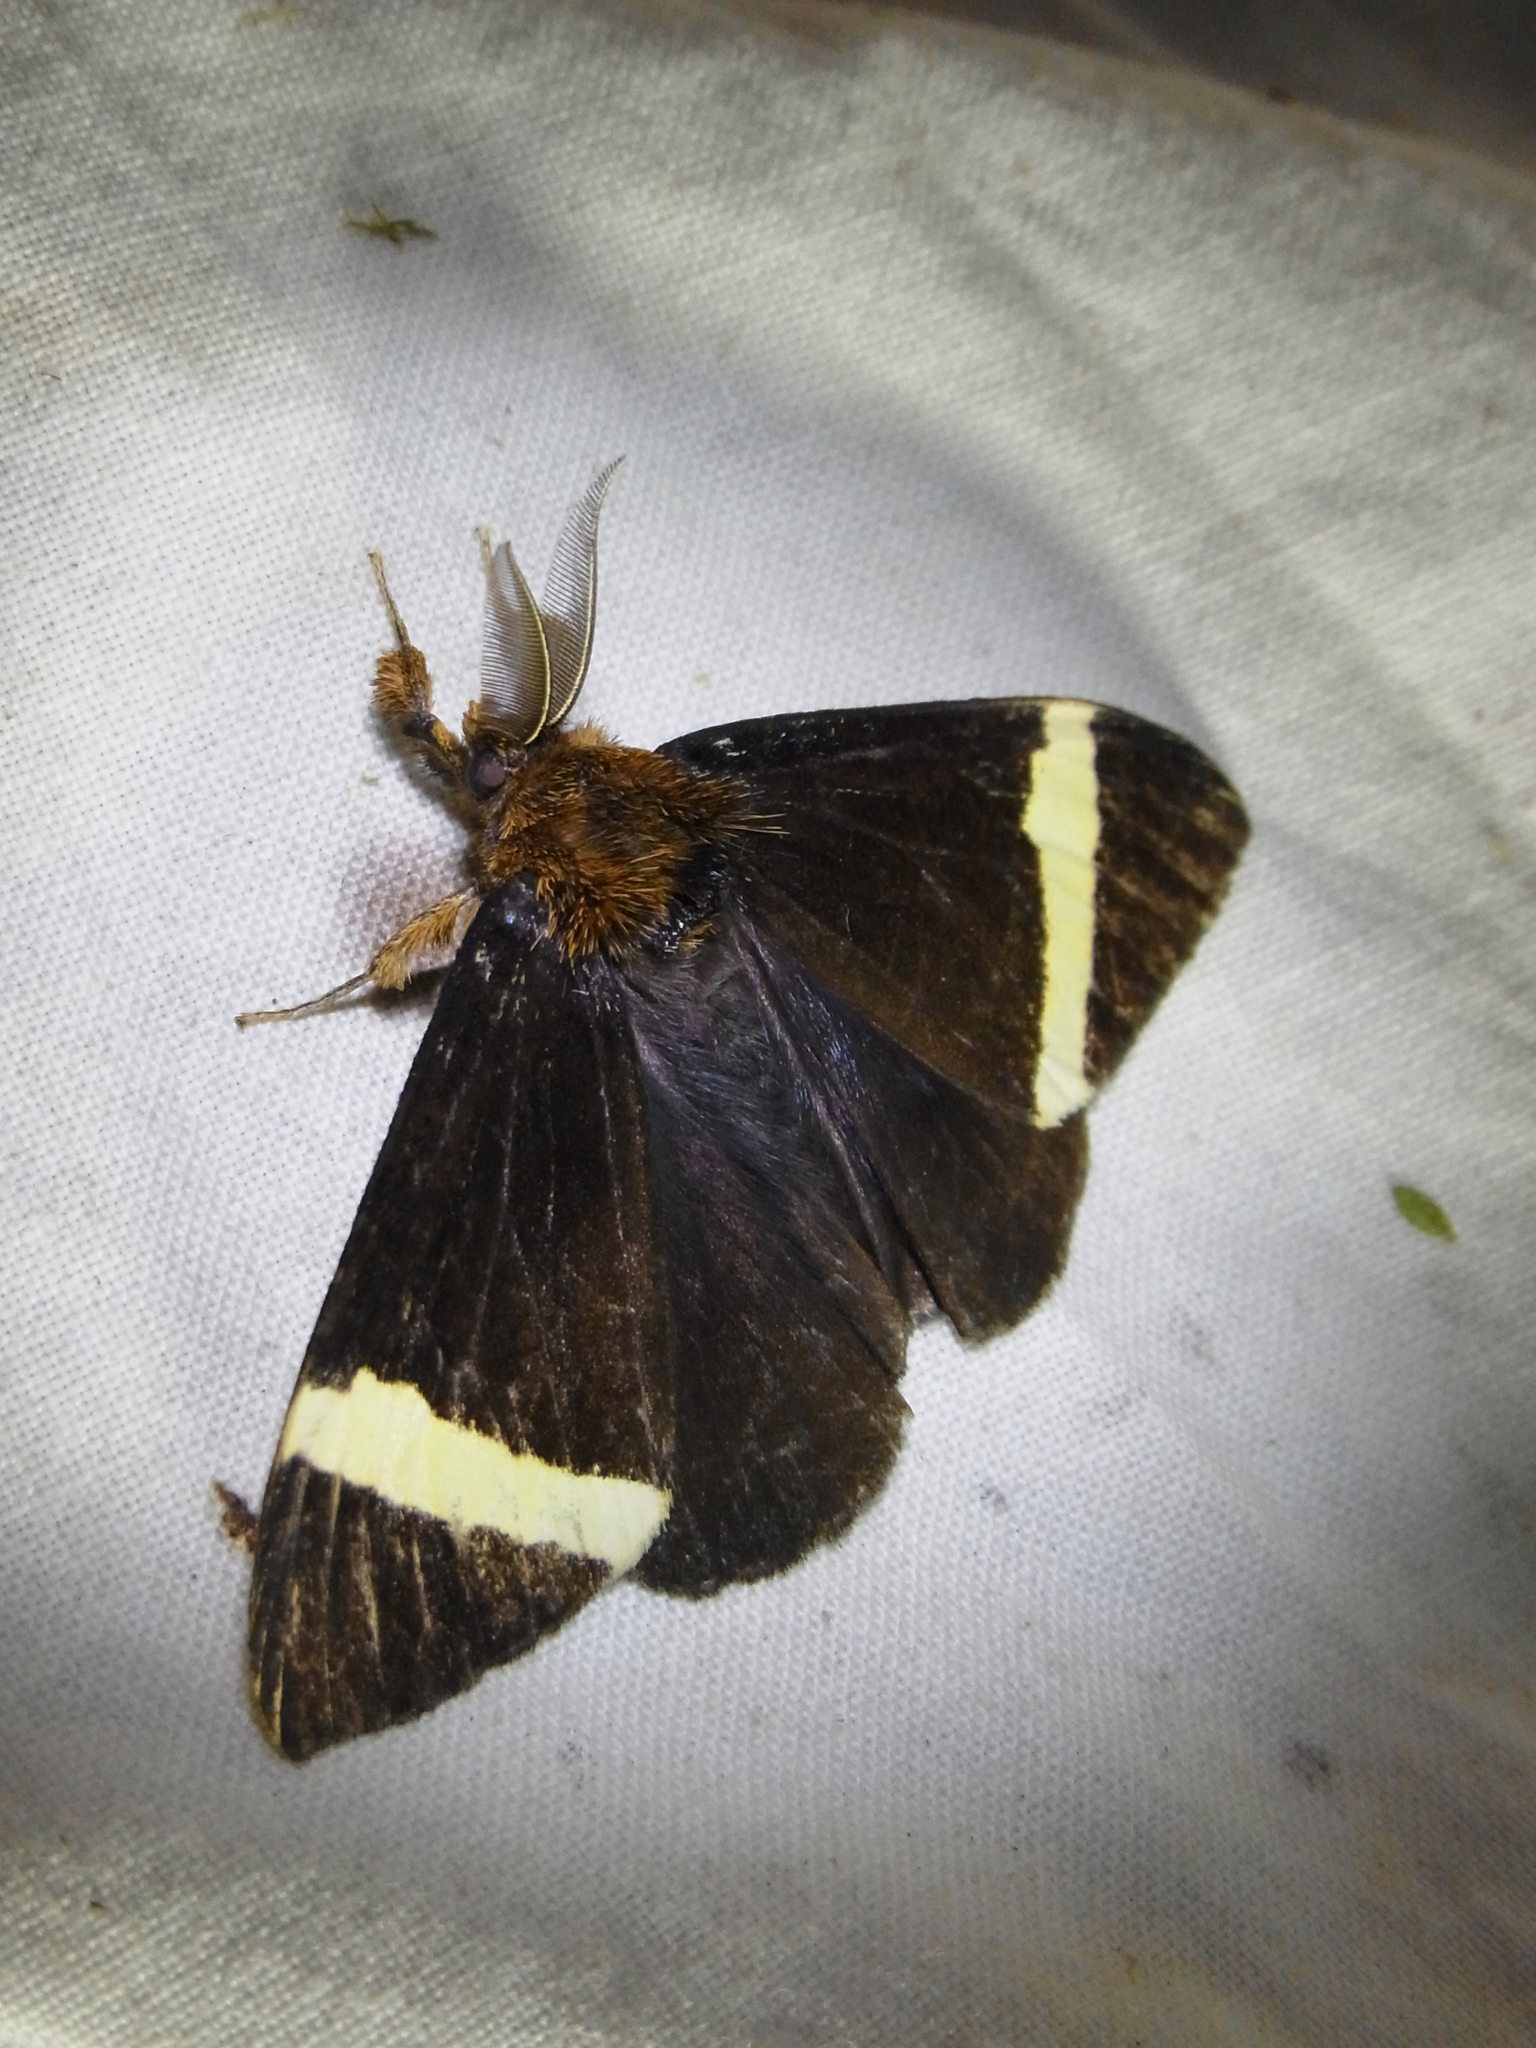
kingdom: Animalia
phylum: Arthropoda
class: Insecta
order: Lepidoptera
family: Erebidae
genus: Kuromondokuga
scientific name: Kuromondokuga albofascia
